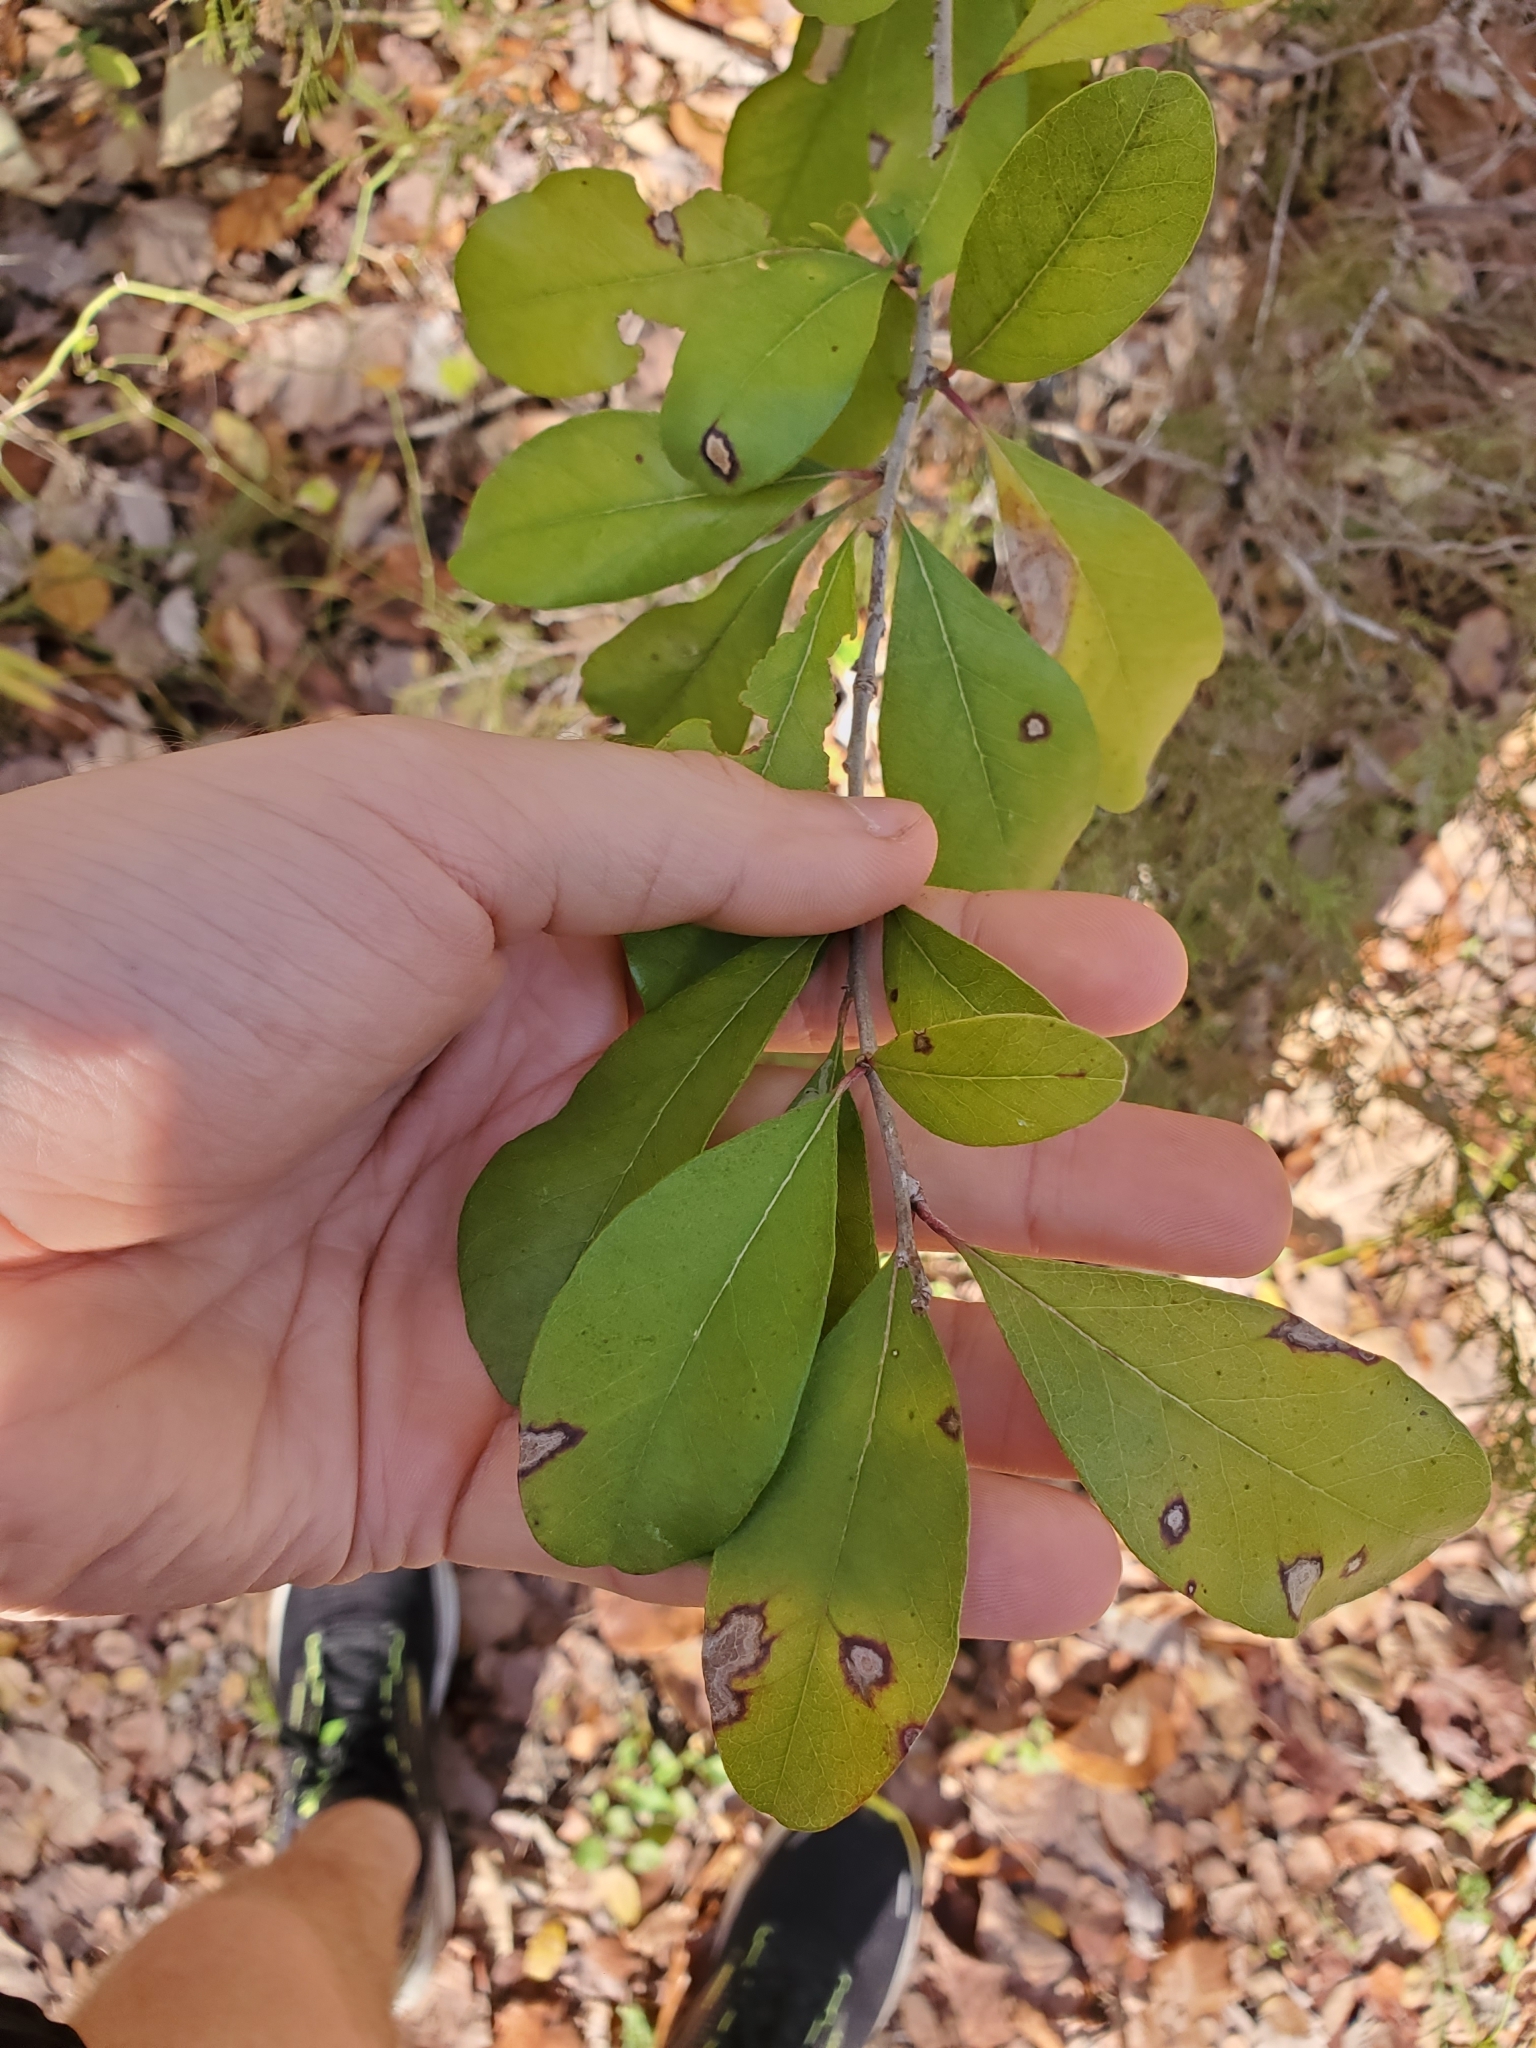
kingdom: Plantae
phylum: Tracheophyta
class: Magnoliopsida
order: Aquifoliales
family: Aquifoliaceae
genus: Ilex
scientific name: Ilex decidua
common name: Possum-haw
